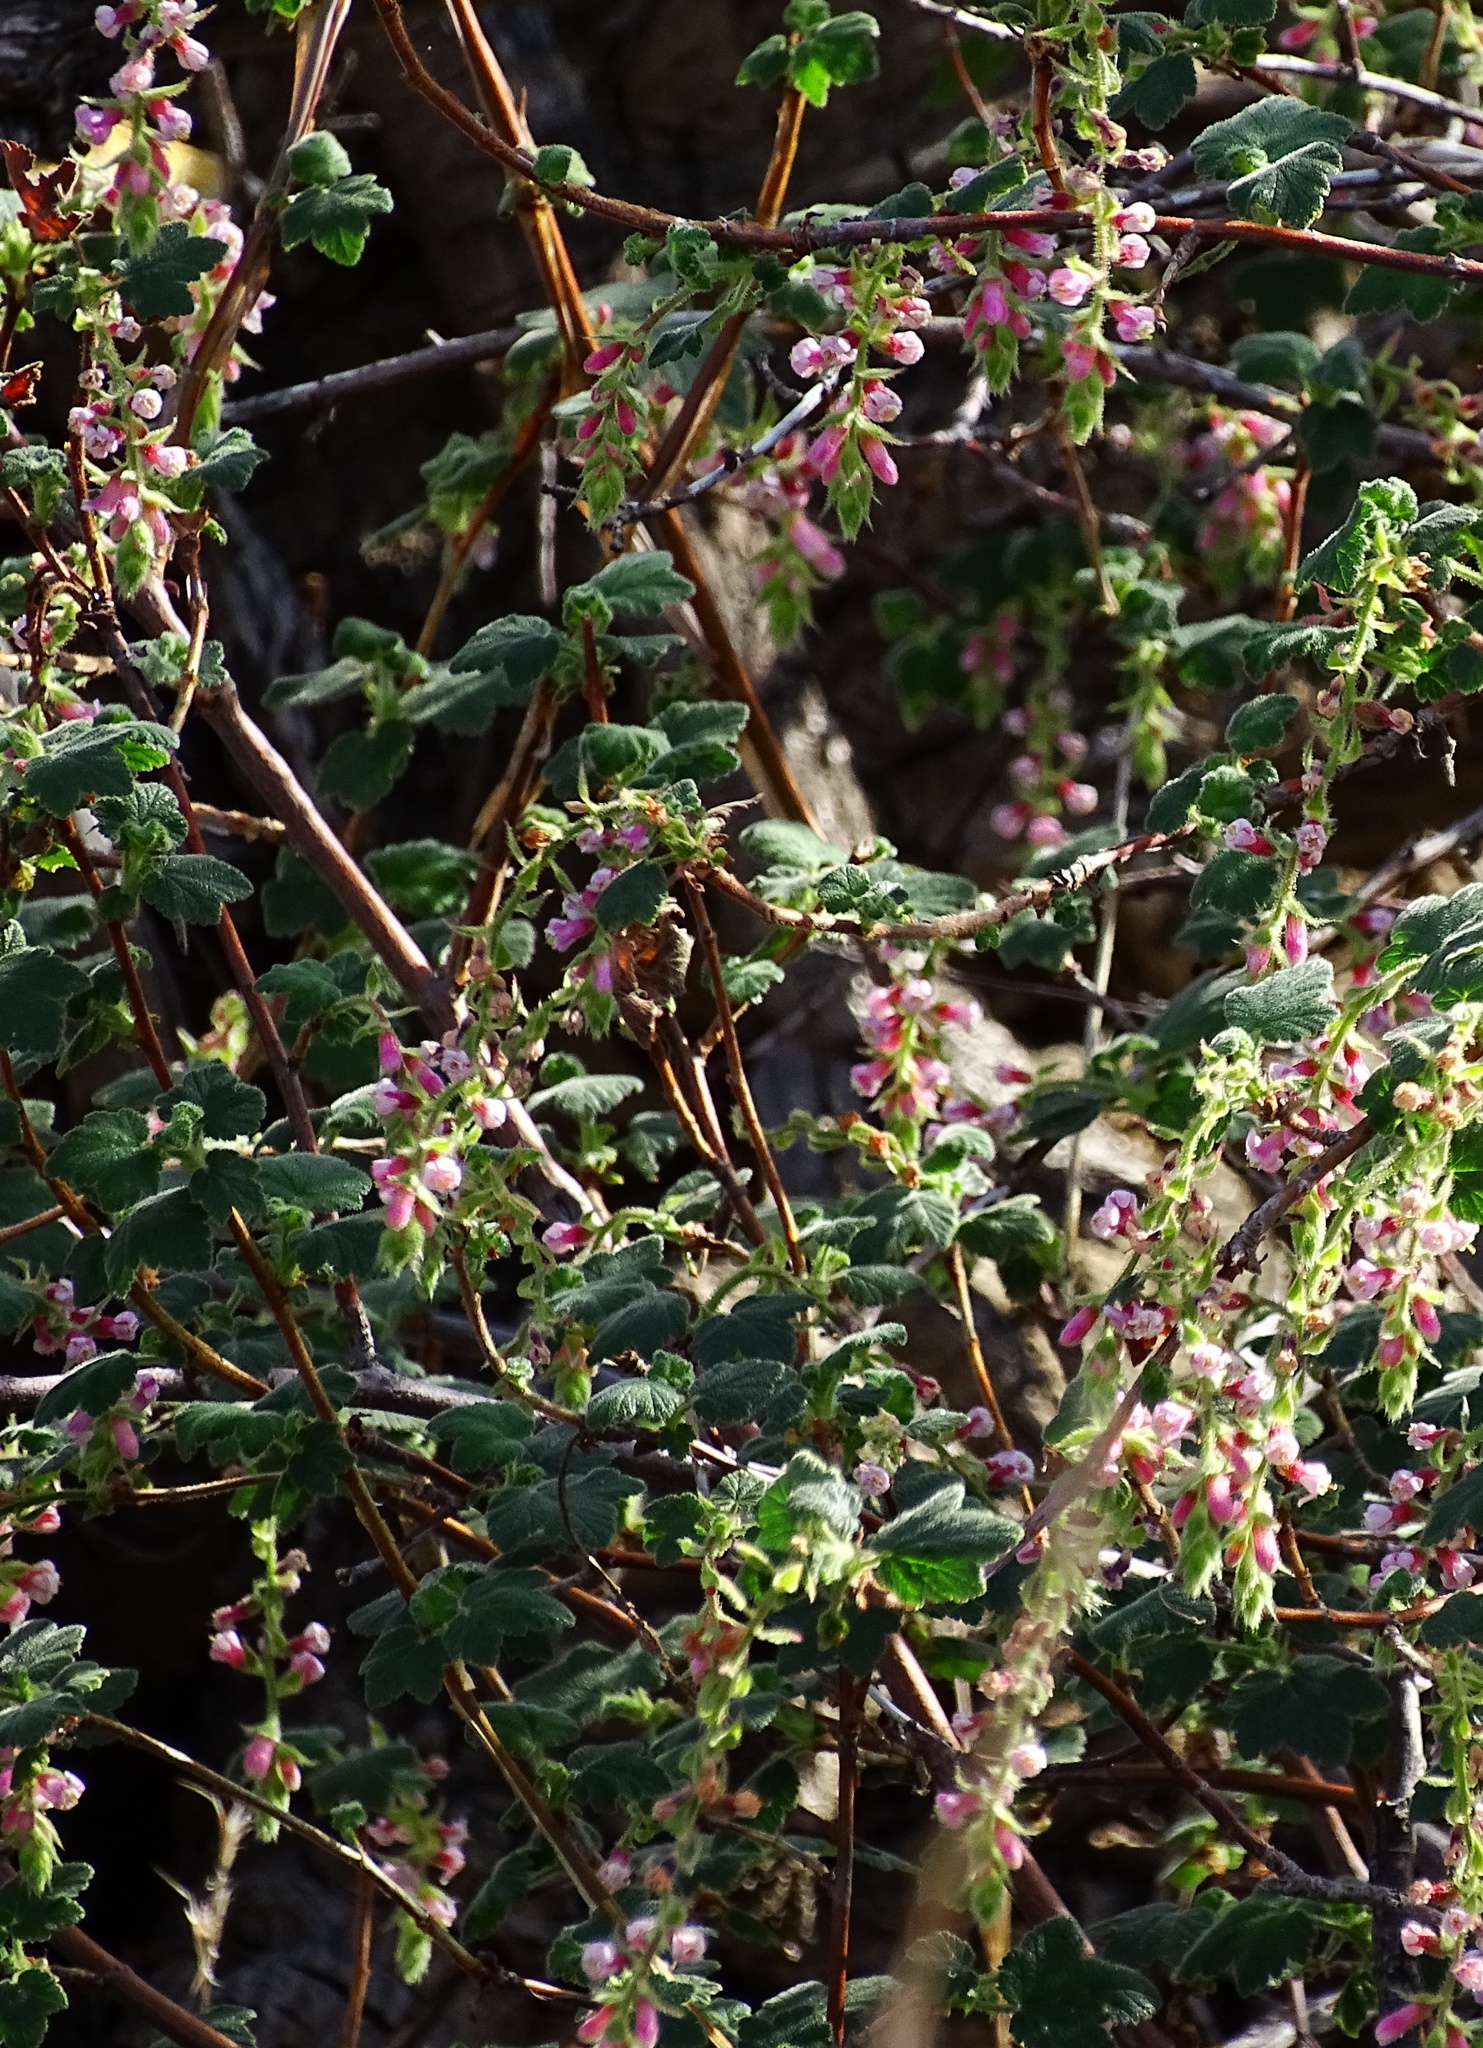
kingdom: Plantae
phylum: Tracheophyta
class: Magnoliopsida
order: Saxifragales
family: Grossulariaceae
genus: Ribes
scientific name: Ribes malvaceum
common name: Chaparral currant
